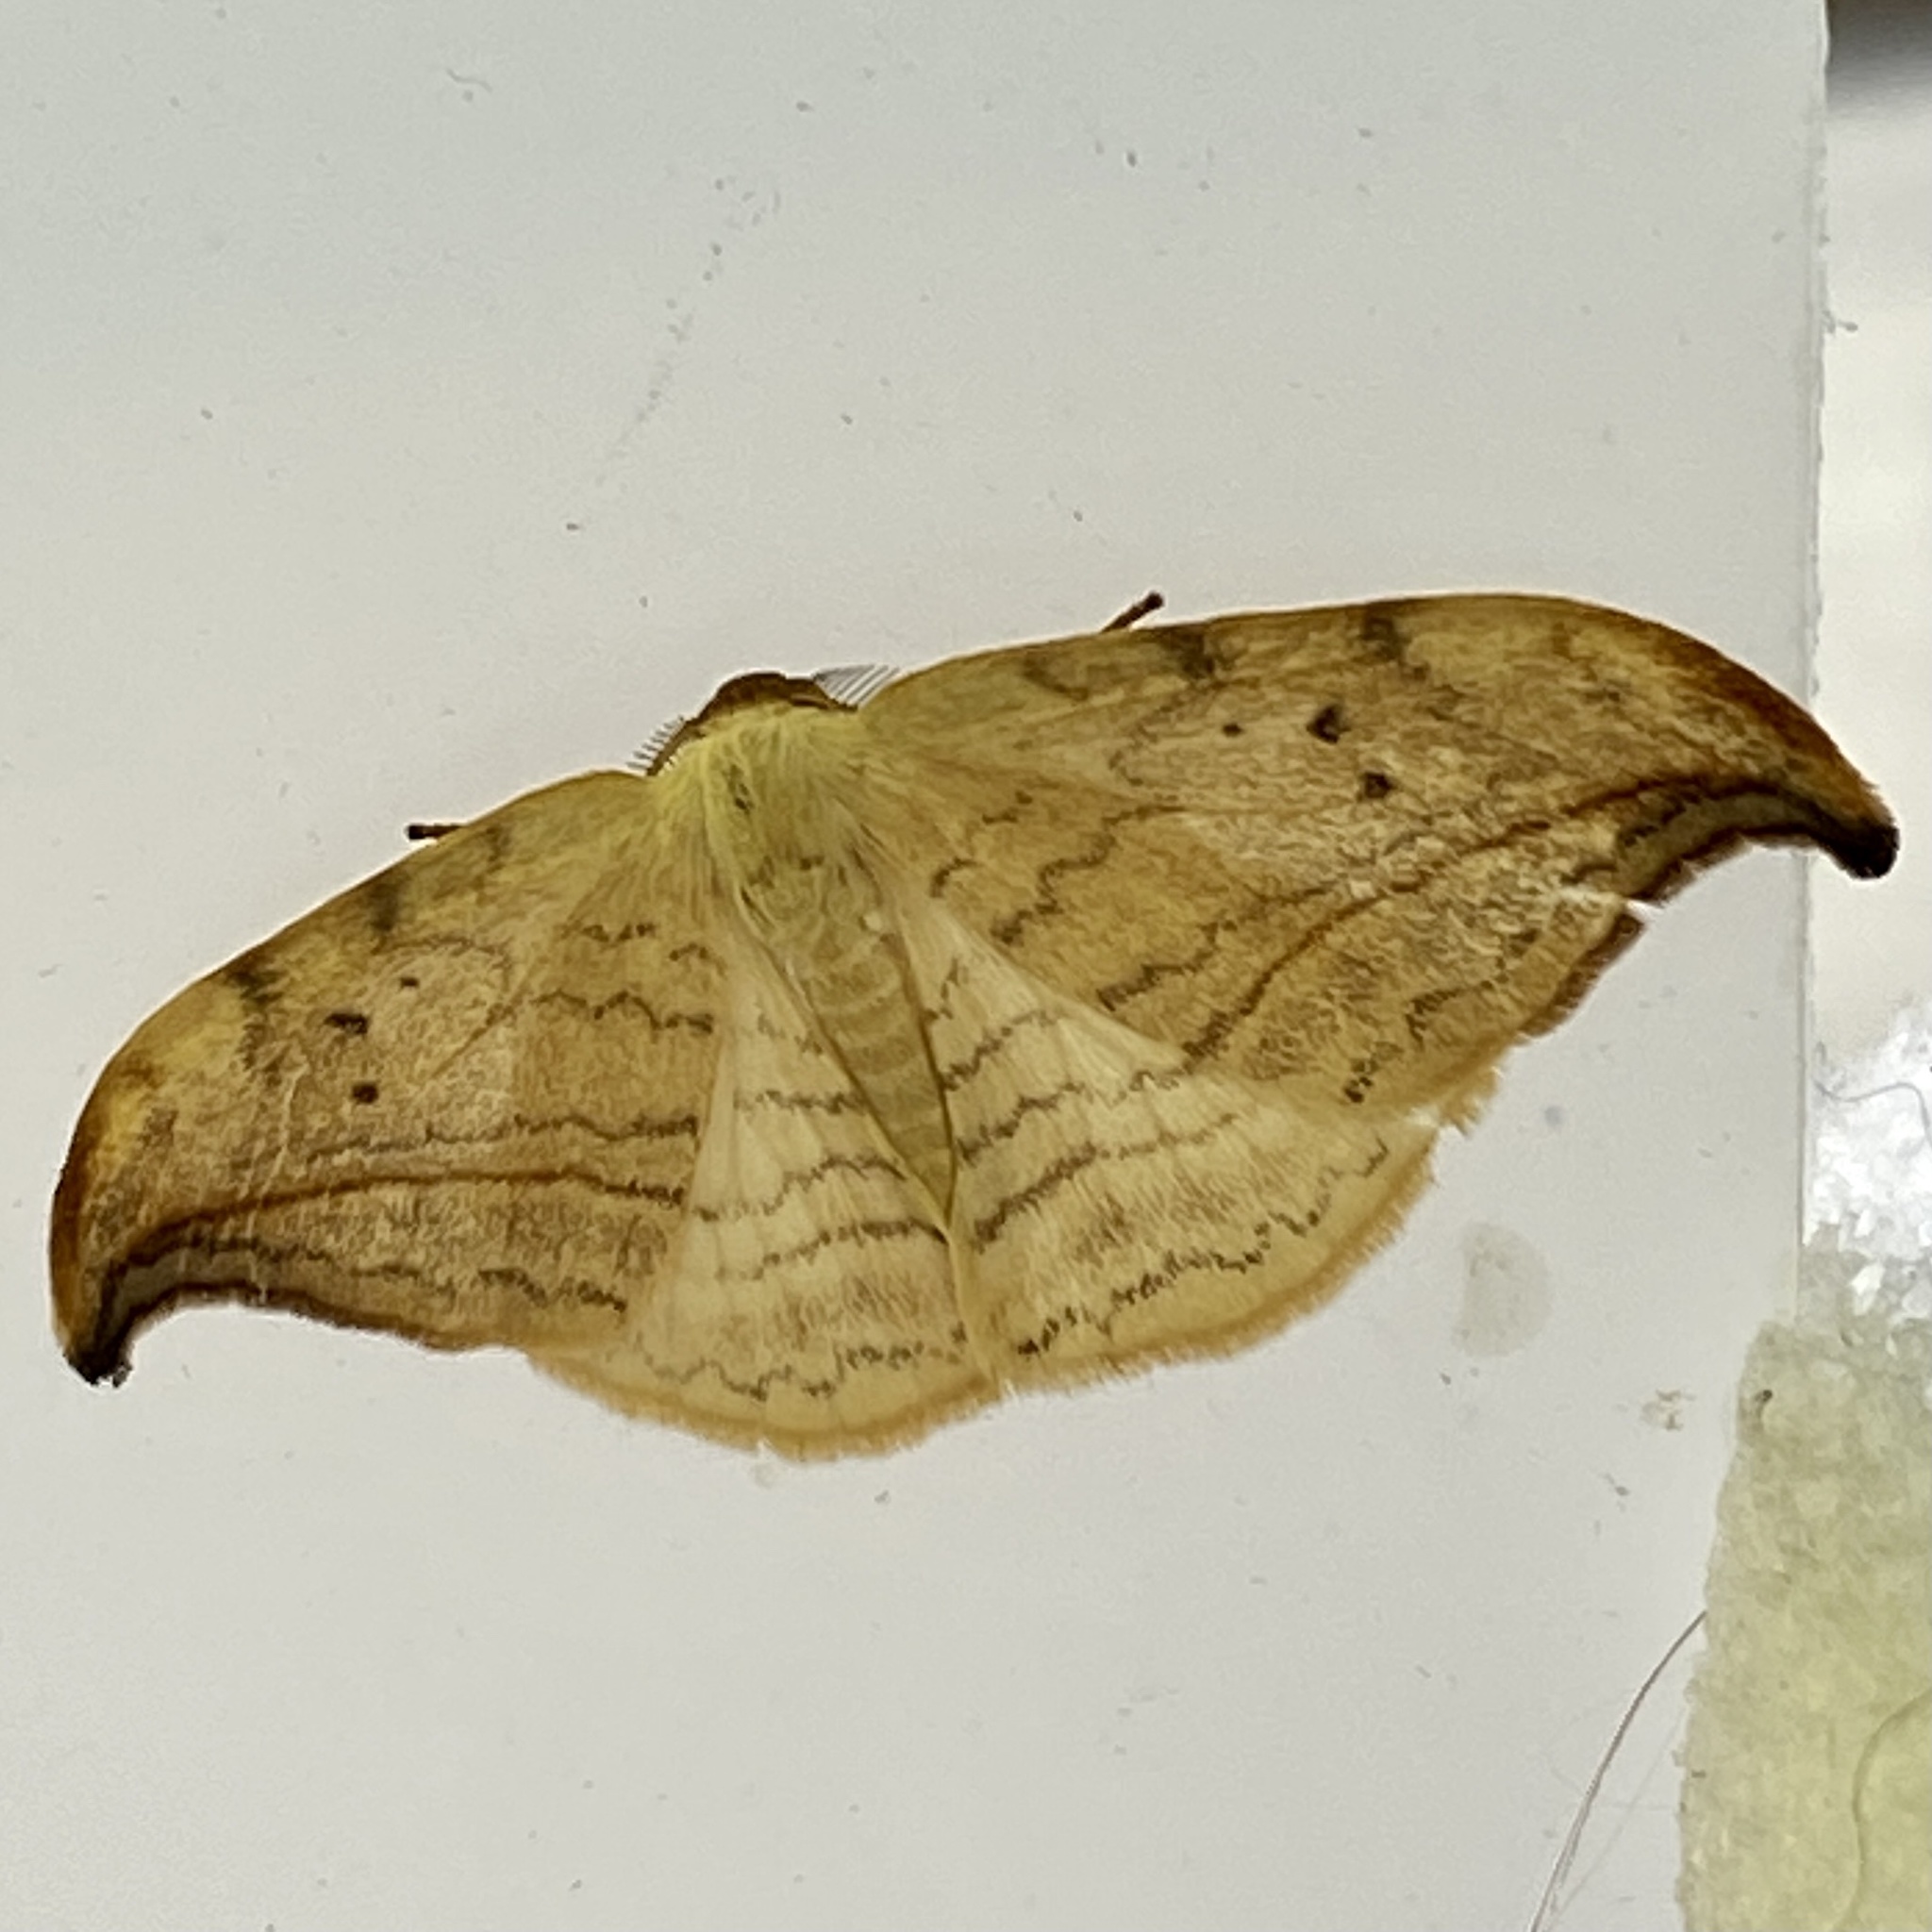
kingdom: Animalia
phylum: Arthropoda
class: Insecta
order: Lepidoptera
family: Drepanidae
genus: Drepana
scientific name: Drepana arcuata
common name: Arched hooktip moth
